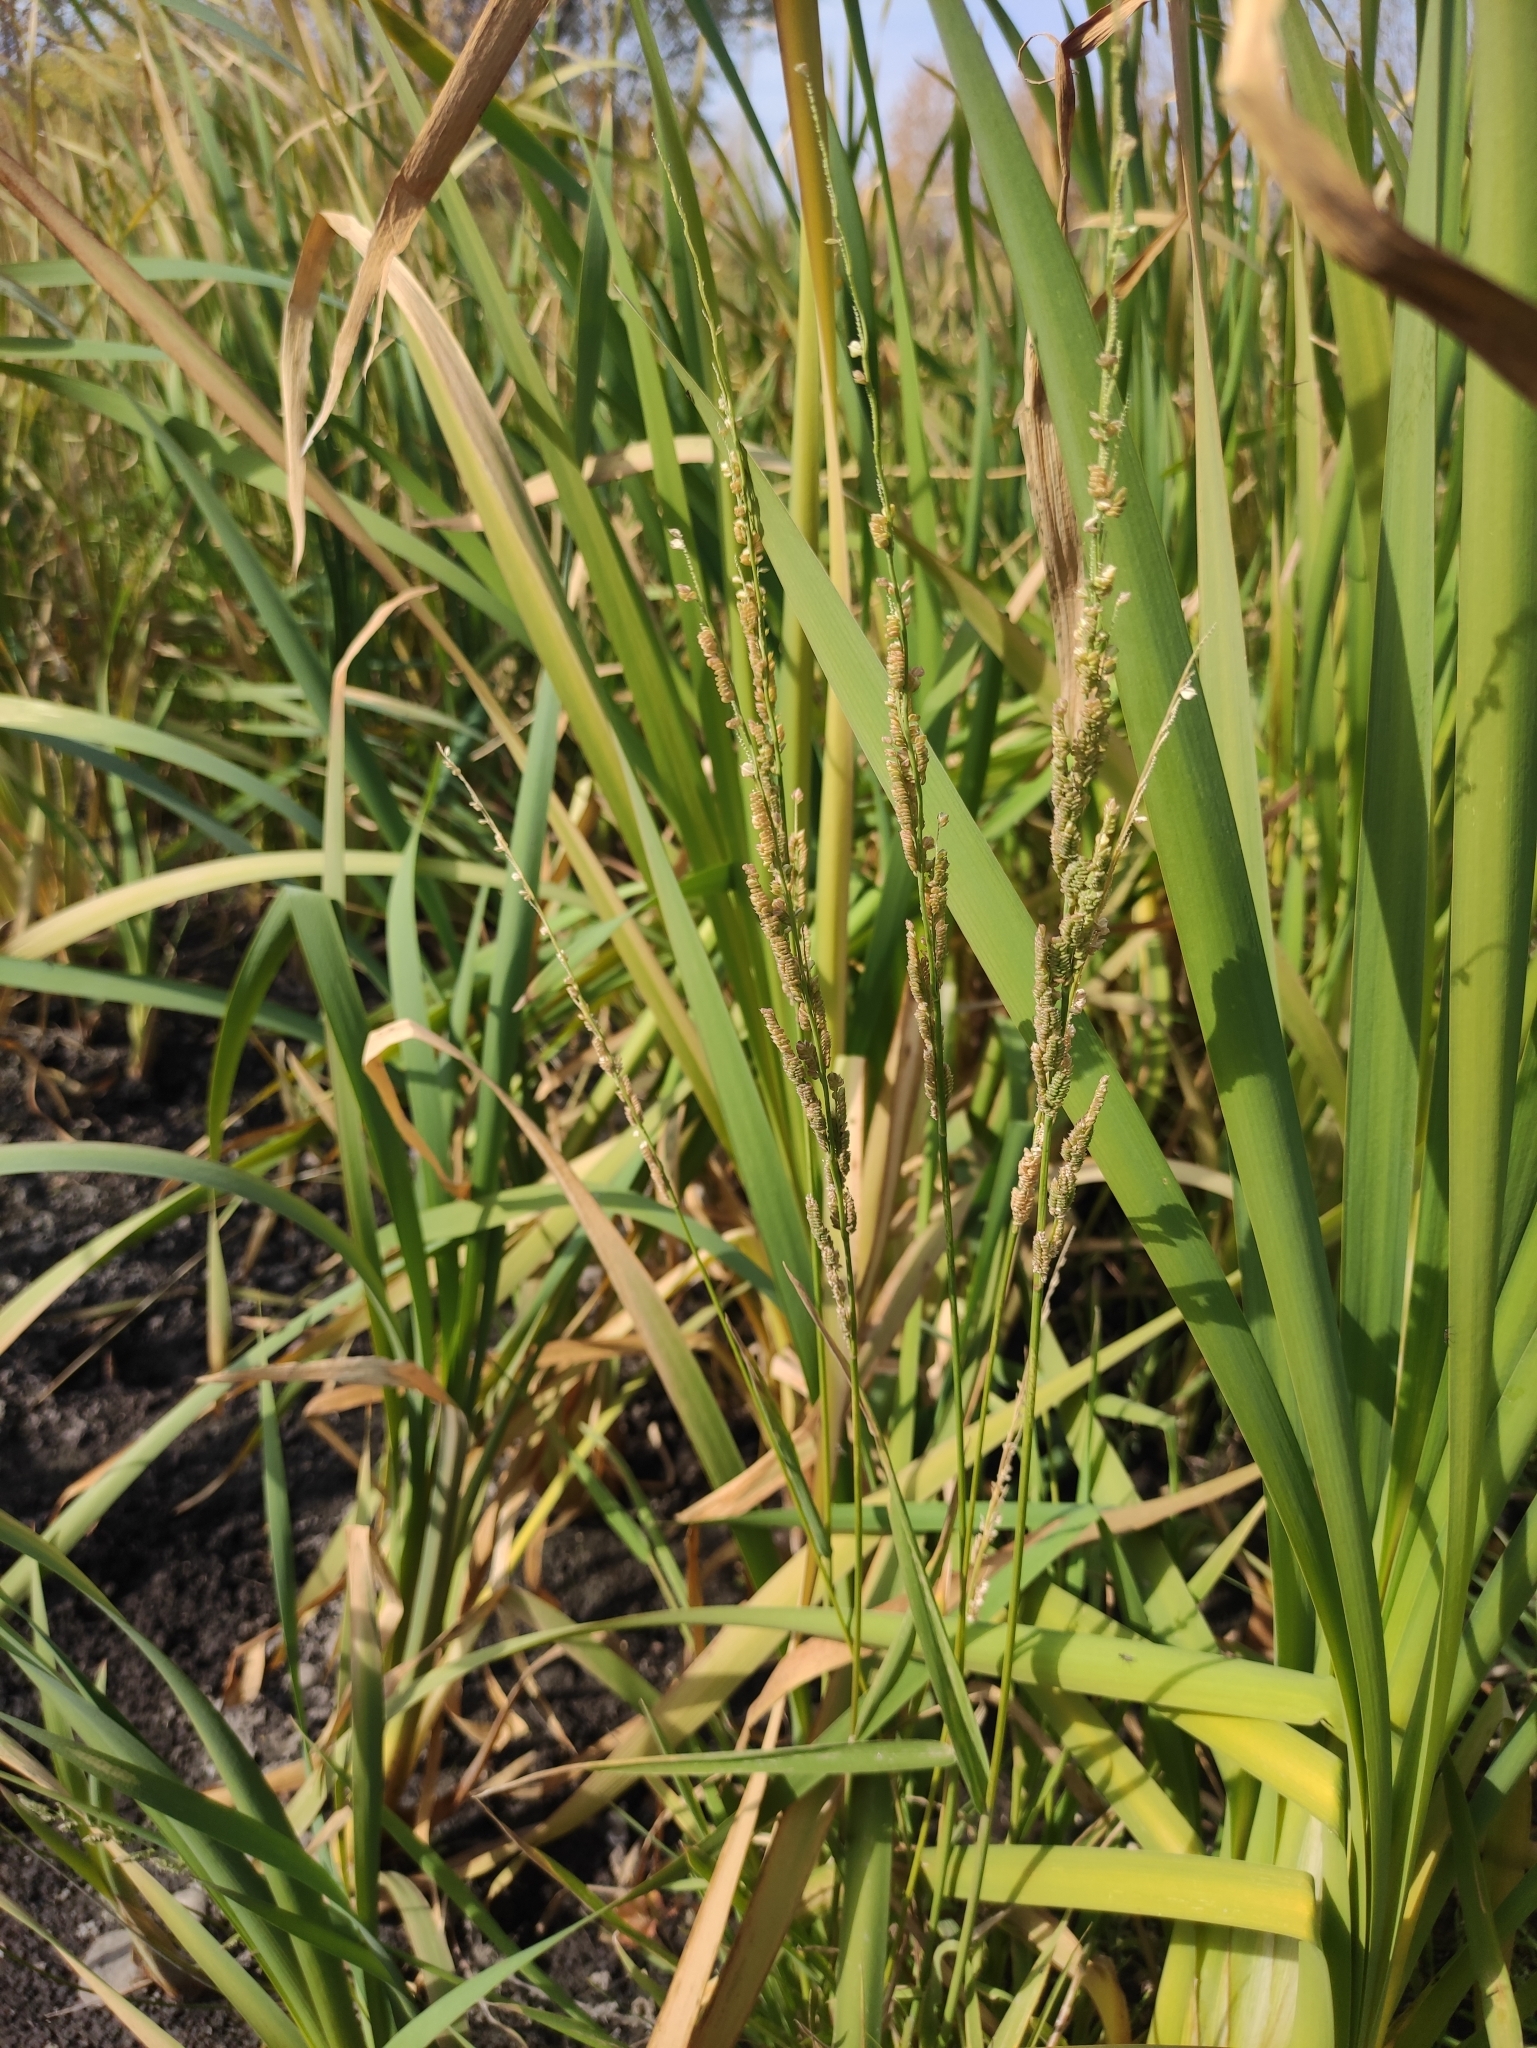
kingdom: Plantae
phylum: Tracheophyta
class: Liliopsida
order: Poales
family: Poaceae
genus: Beckmannia
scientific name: Beckmannia syzigachne
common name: American slough-grass
